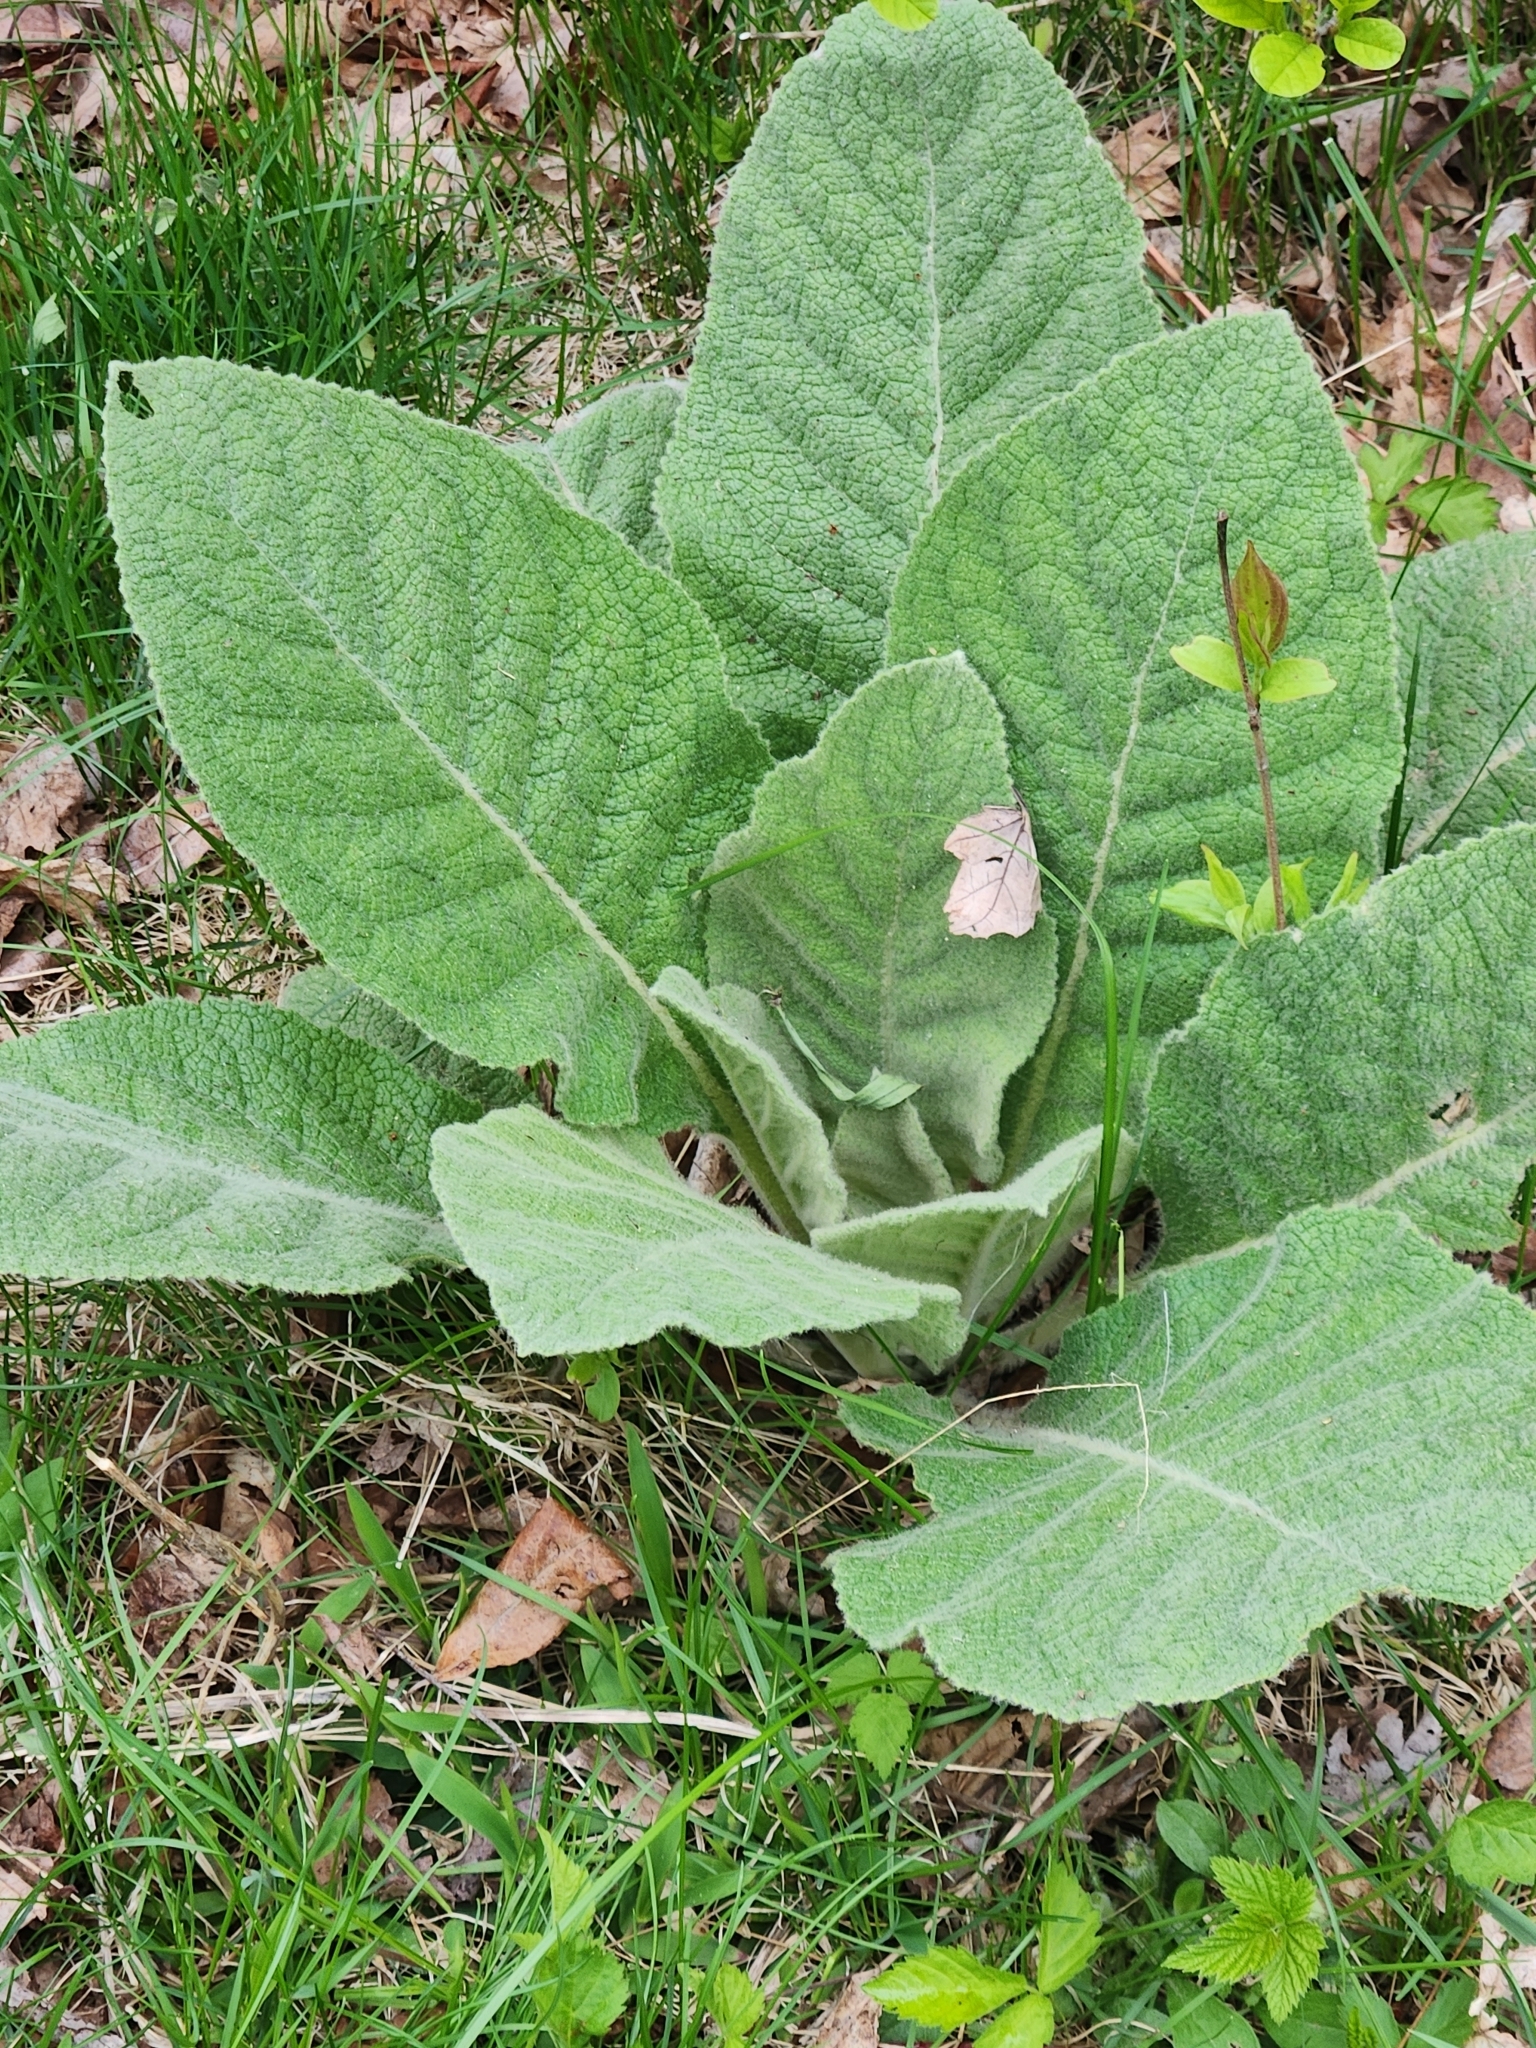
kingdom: Plantae
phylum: Tracheophyta
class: Magnoliopsida
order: Lamiales
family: Scrophulariaceae
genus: Verbascum
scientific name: Verbascum thapsus
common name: Common mullein
